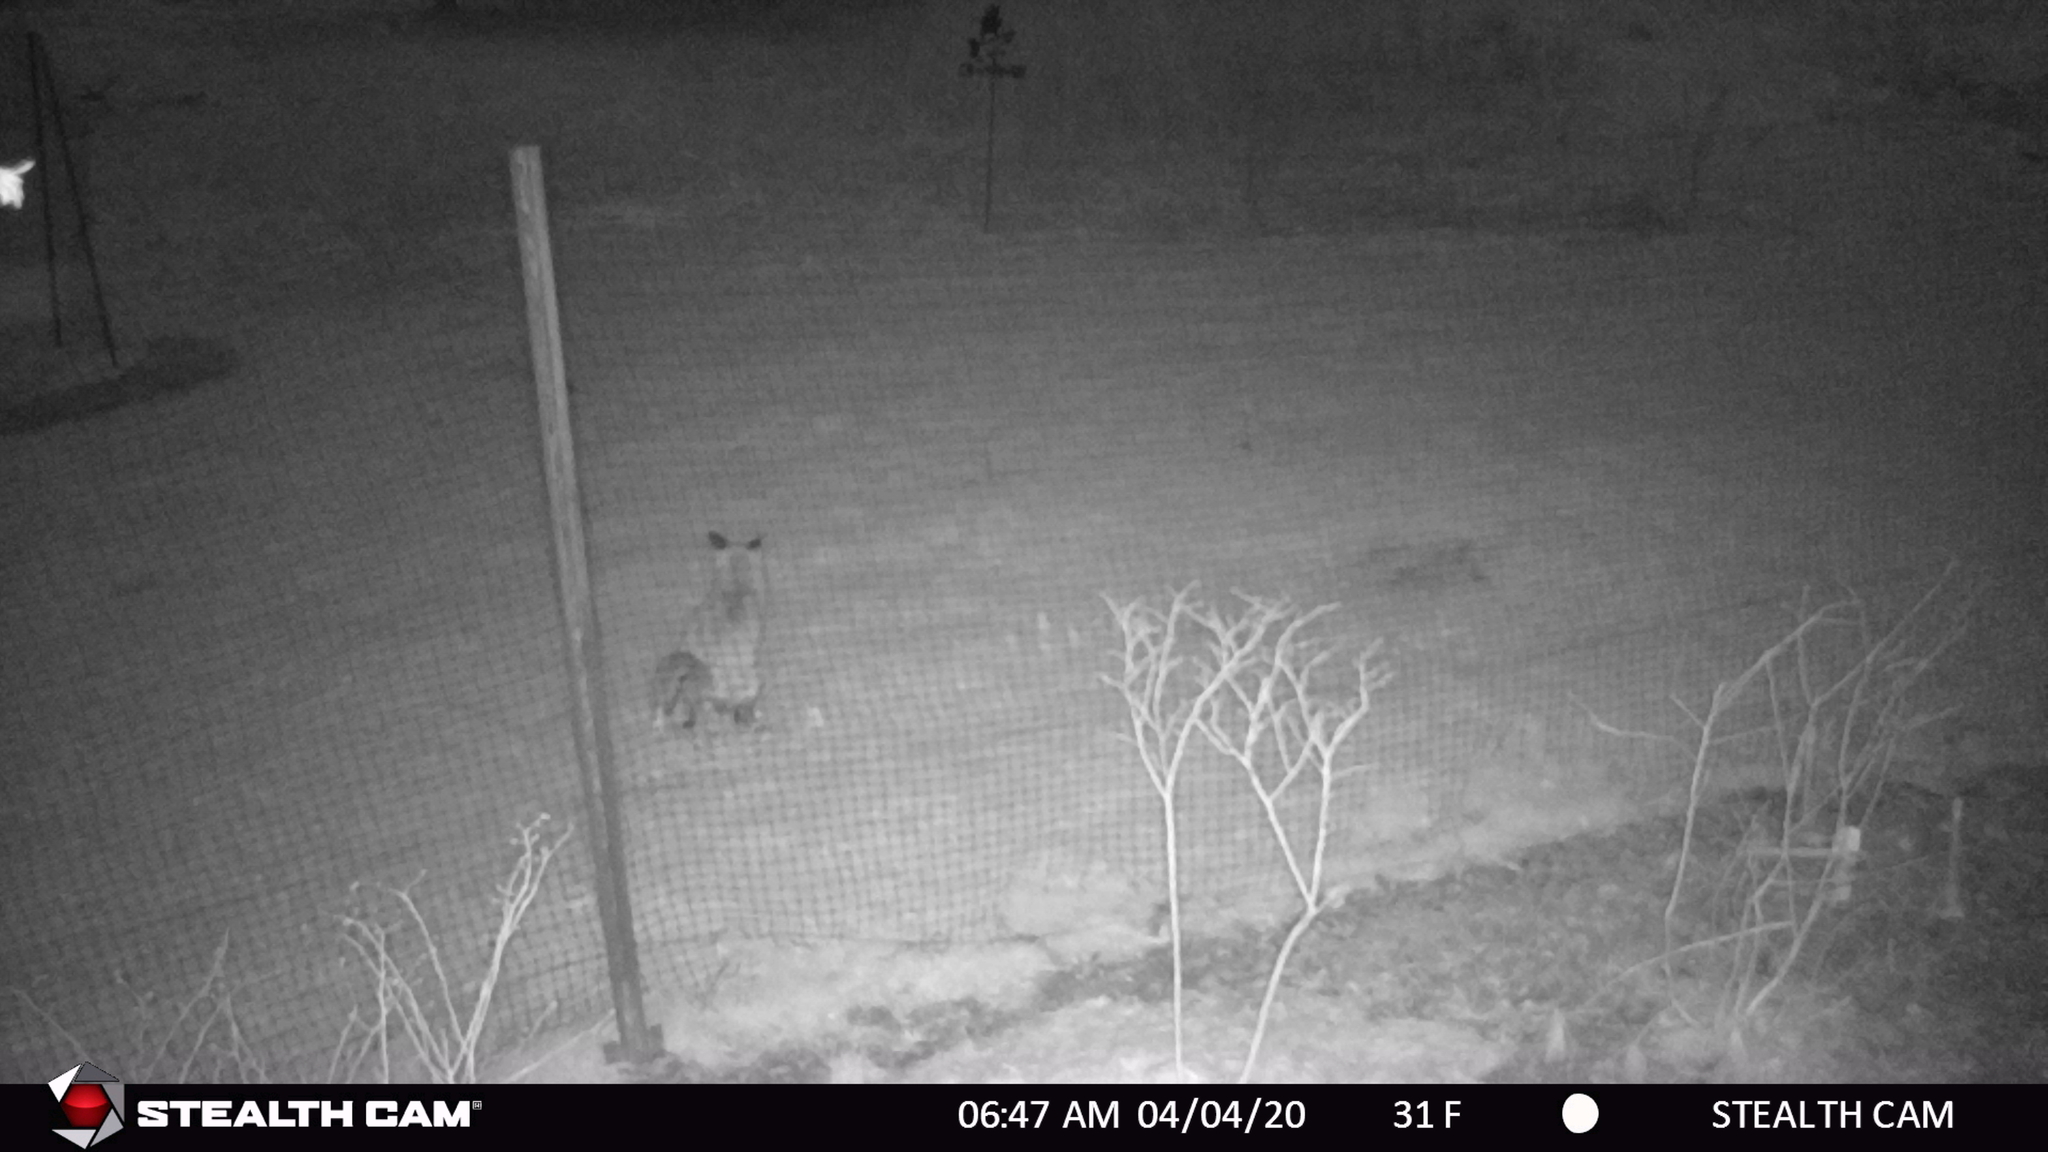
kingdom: Animalia
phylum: Chordata
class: Mammalia
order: Carnivora
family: Canidae
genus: Vulpes
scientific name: Vulpes vulpes
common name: Red fox
